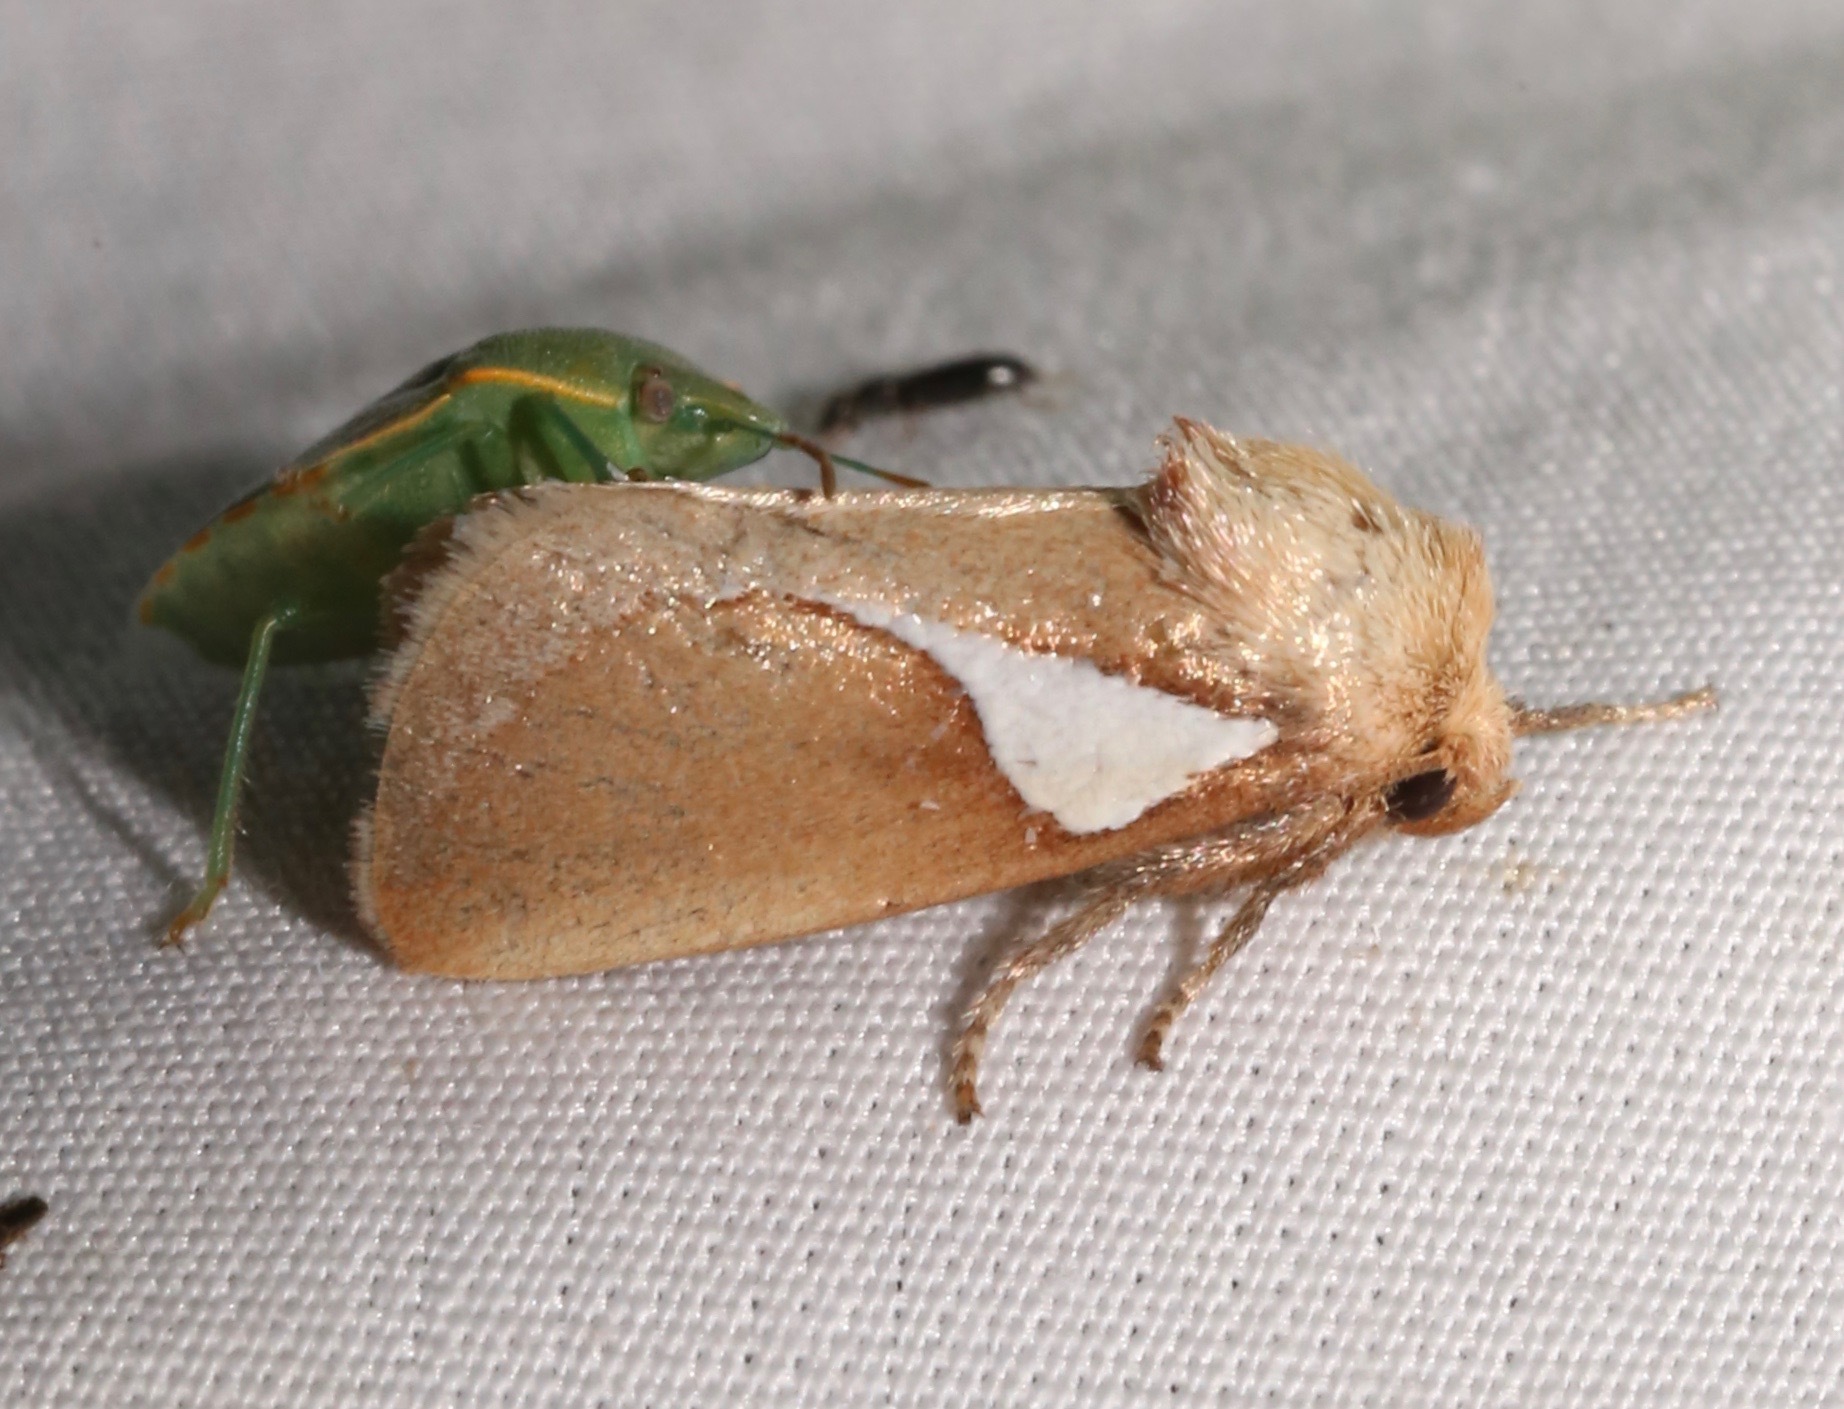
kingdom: Animalia
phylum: Arthropoda
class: Insecta
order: Lepidoptera
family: Limacodidae
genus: Prolimacodes
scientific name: Prolimacodes trigona
